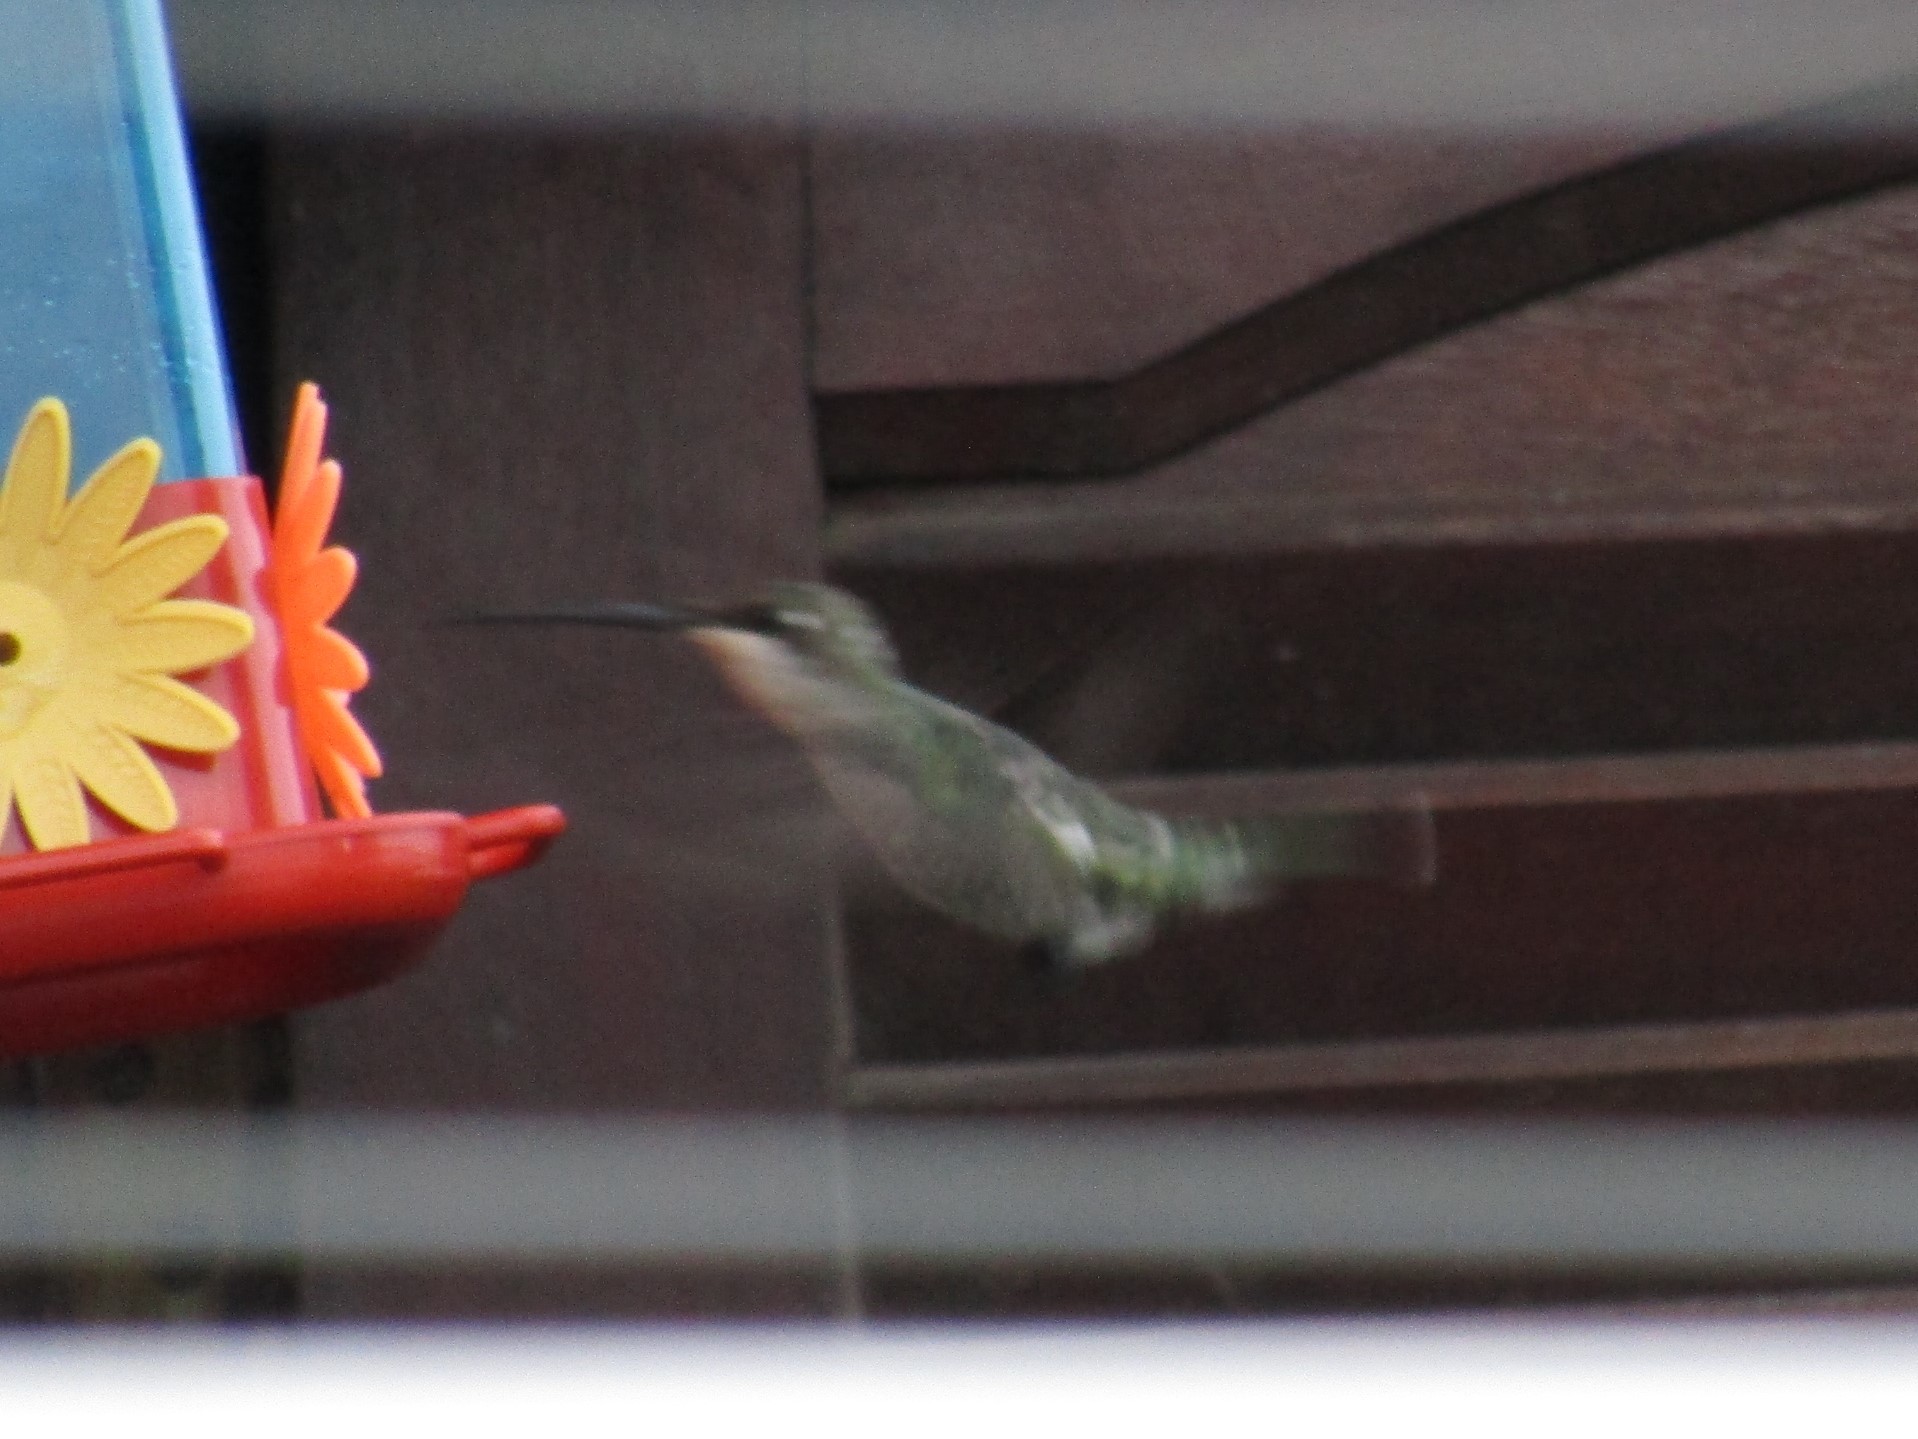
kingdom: Animalia
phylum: Chordata
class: Aves
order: Apodiformes
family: Trochilidae
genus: Heliomaster
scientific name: Heliomaster furcifer
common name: Blue-tufted starthroat
